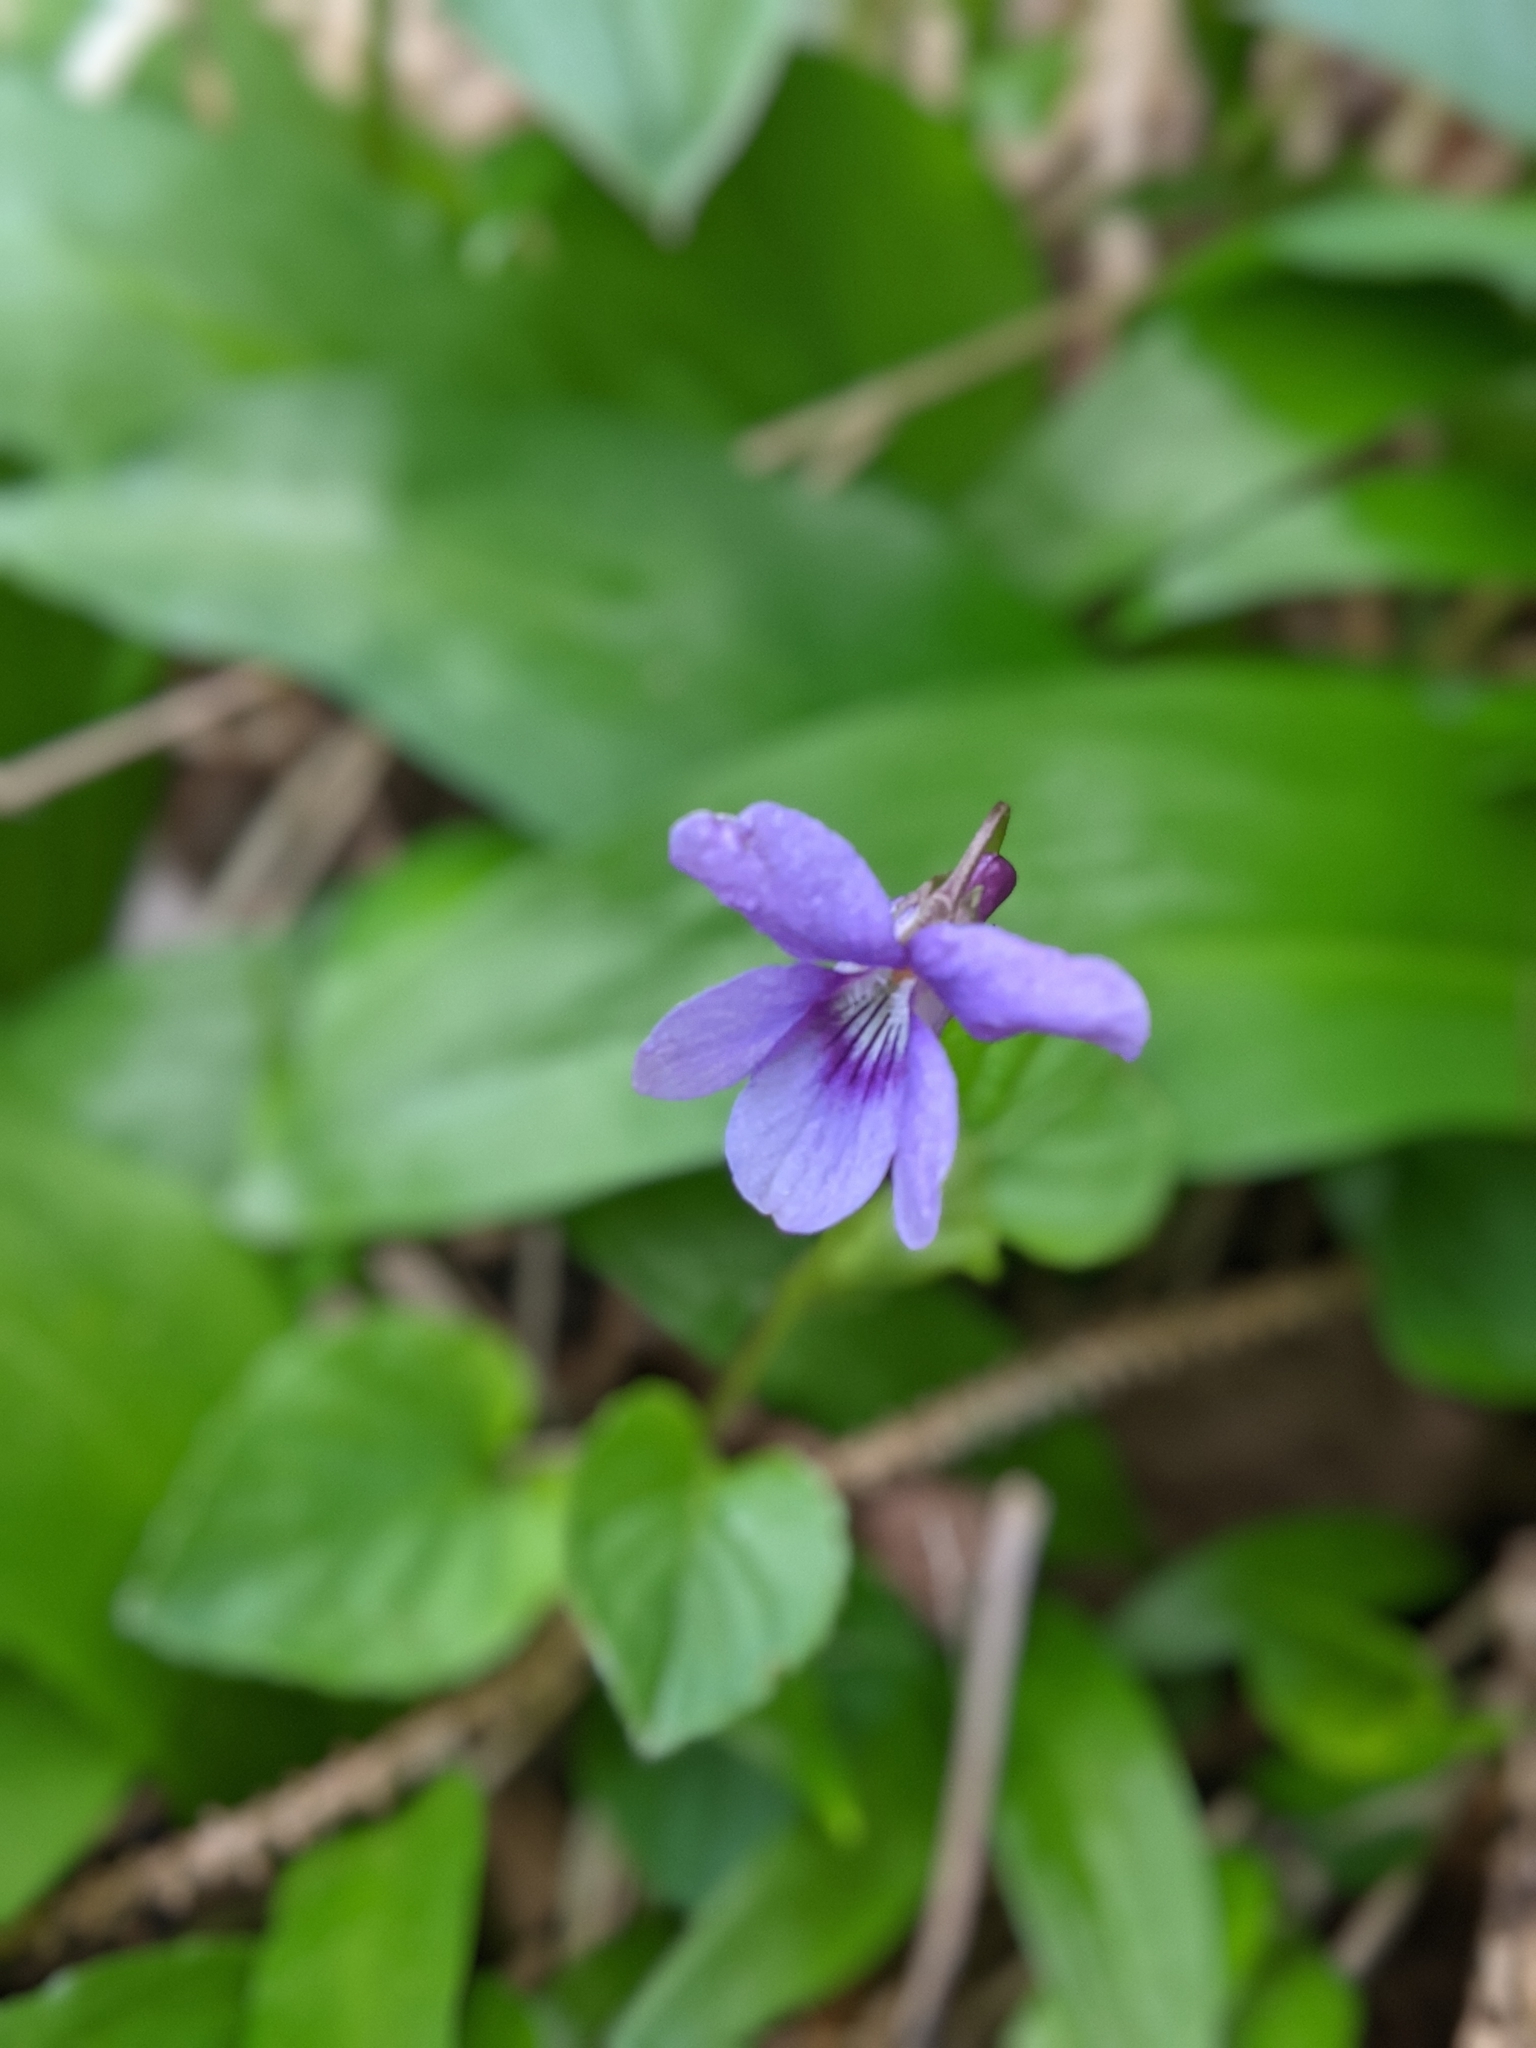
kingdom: Plantae
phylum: Tracheophyta
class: Magnoliopsida
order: Malpighiales
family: Violaceae
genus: Viola
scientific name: Viola reichenbachiana
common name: Early dog-violet
